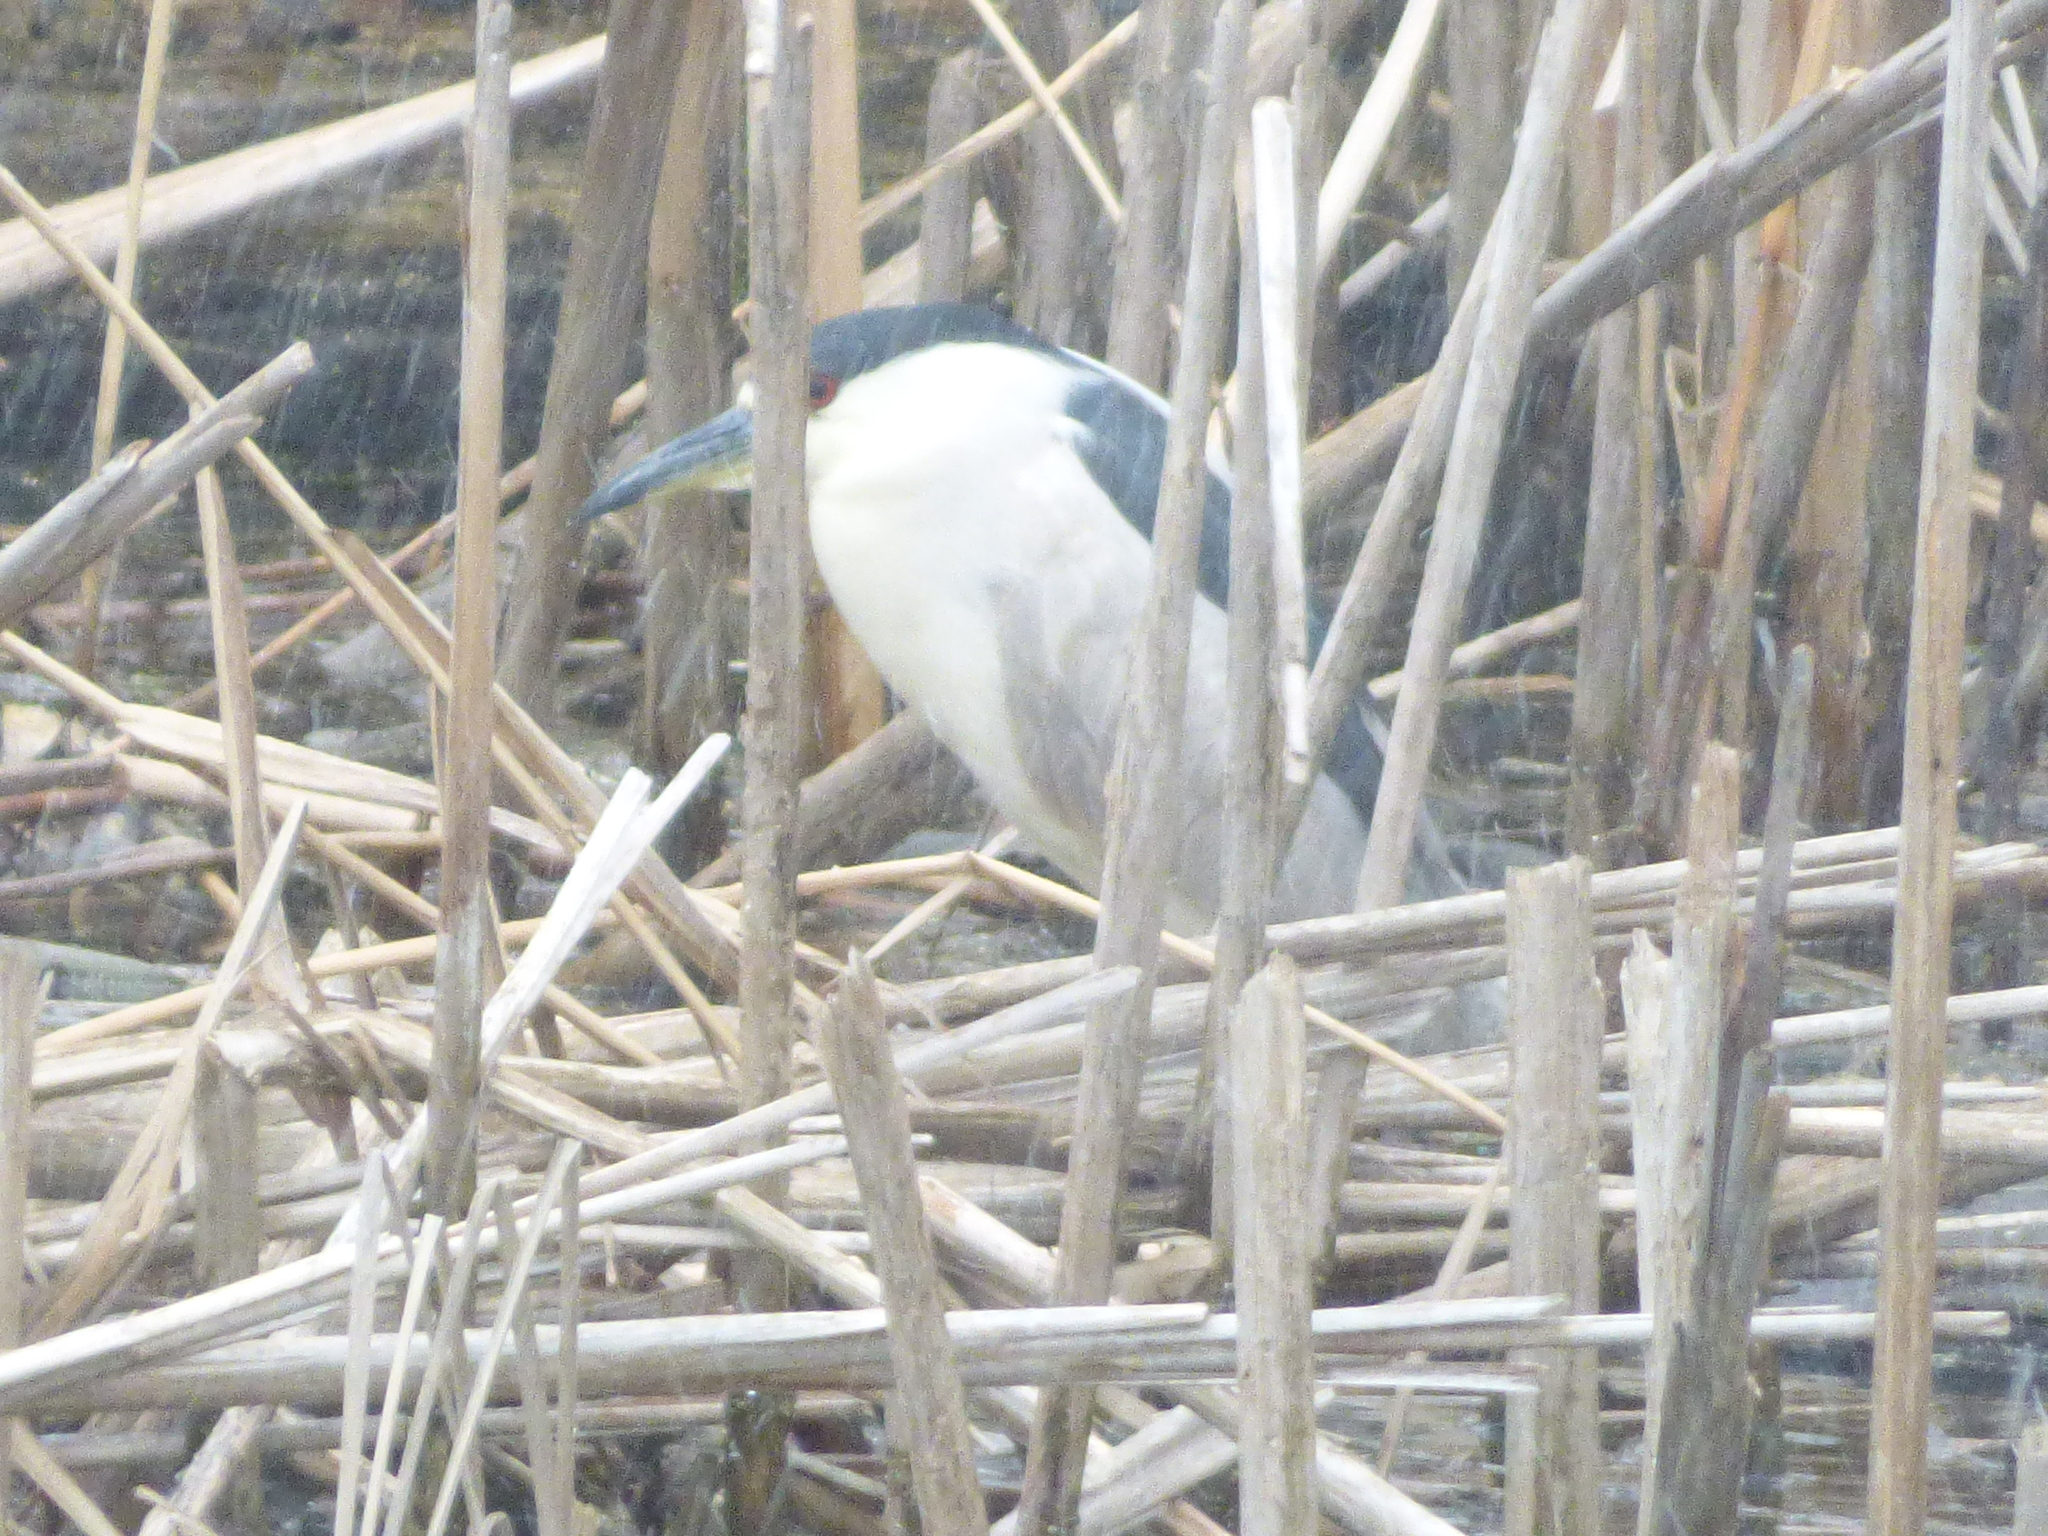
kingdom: Animalia
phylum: Chordata
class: Aves
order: Pelecaniformes
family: Ardeidae
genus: Nycticorax
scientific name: Nycticorax nycticorax
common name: Black-crowned night heron
